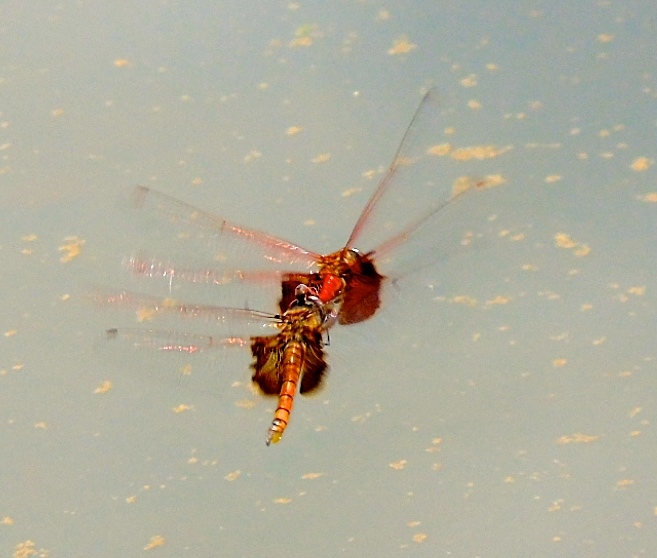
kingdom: Animalia
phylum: Arthropoda
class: Insecta
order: Odonata
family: Libellulidae
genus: Tramea
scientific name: Tramea onusta
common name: Red saddlebags
